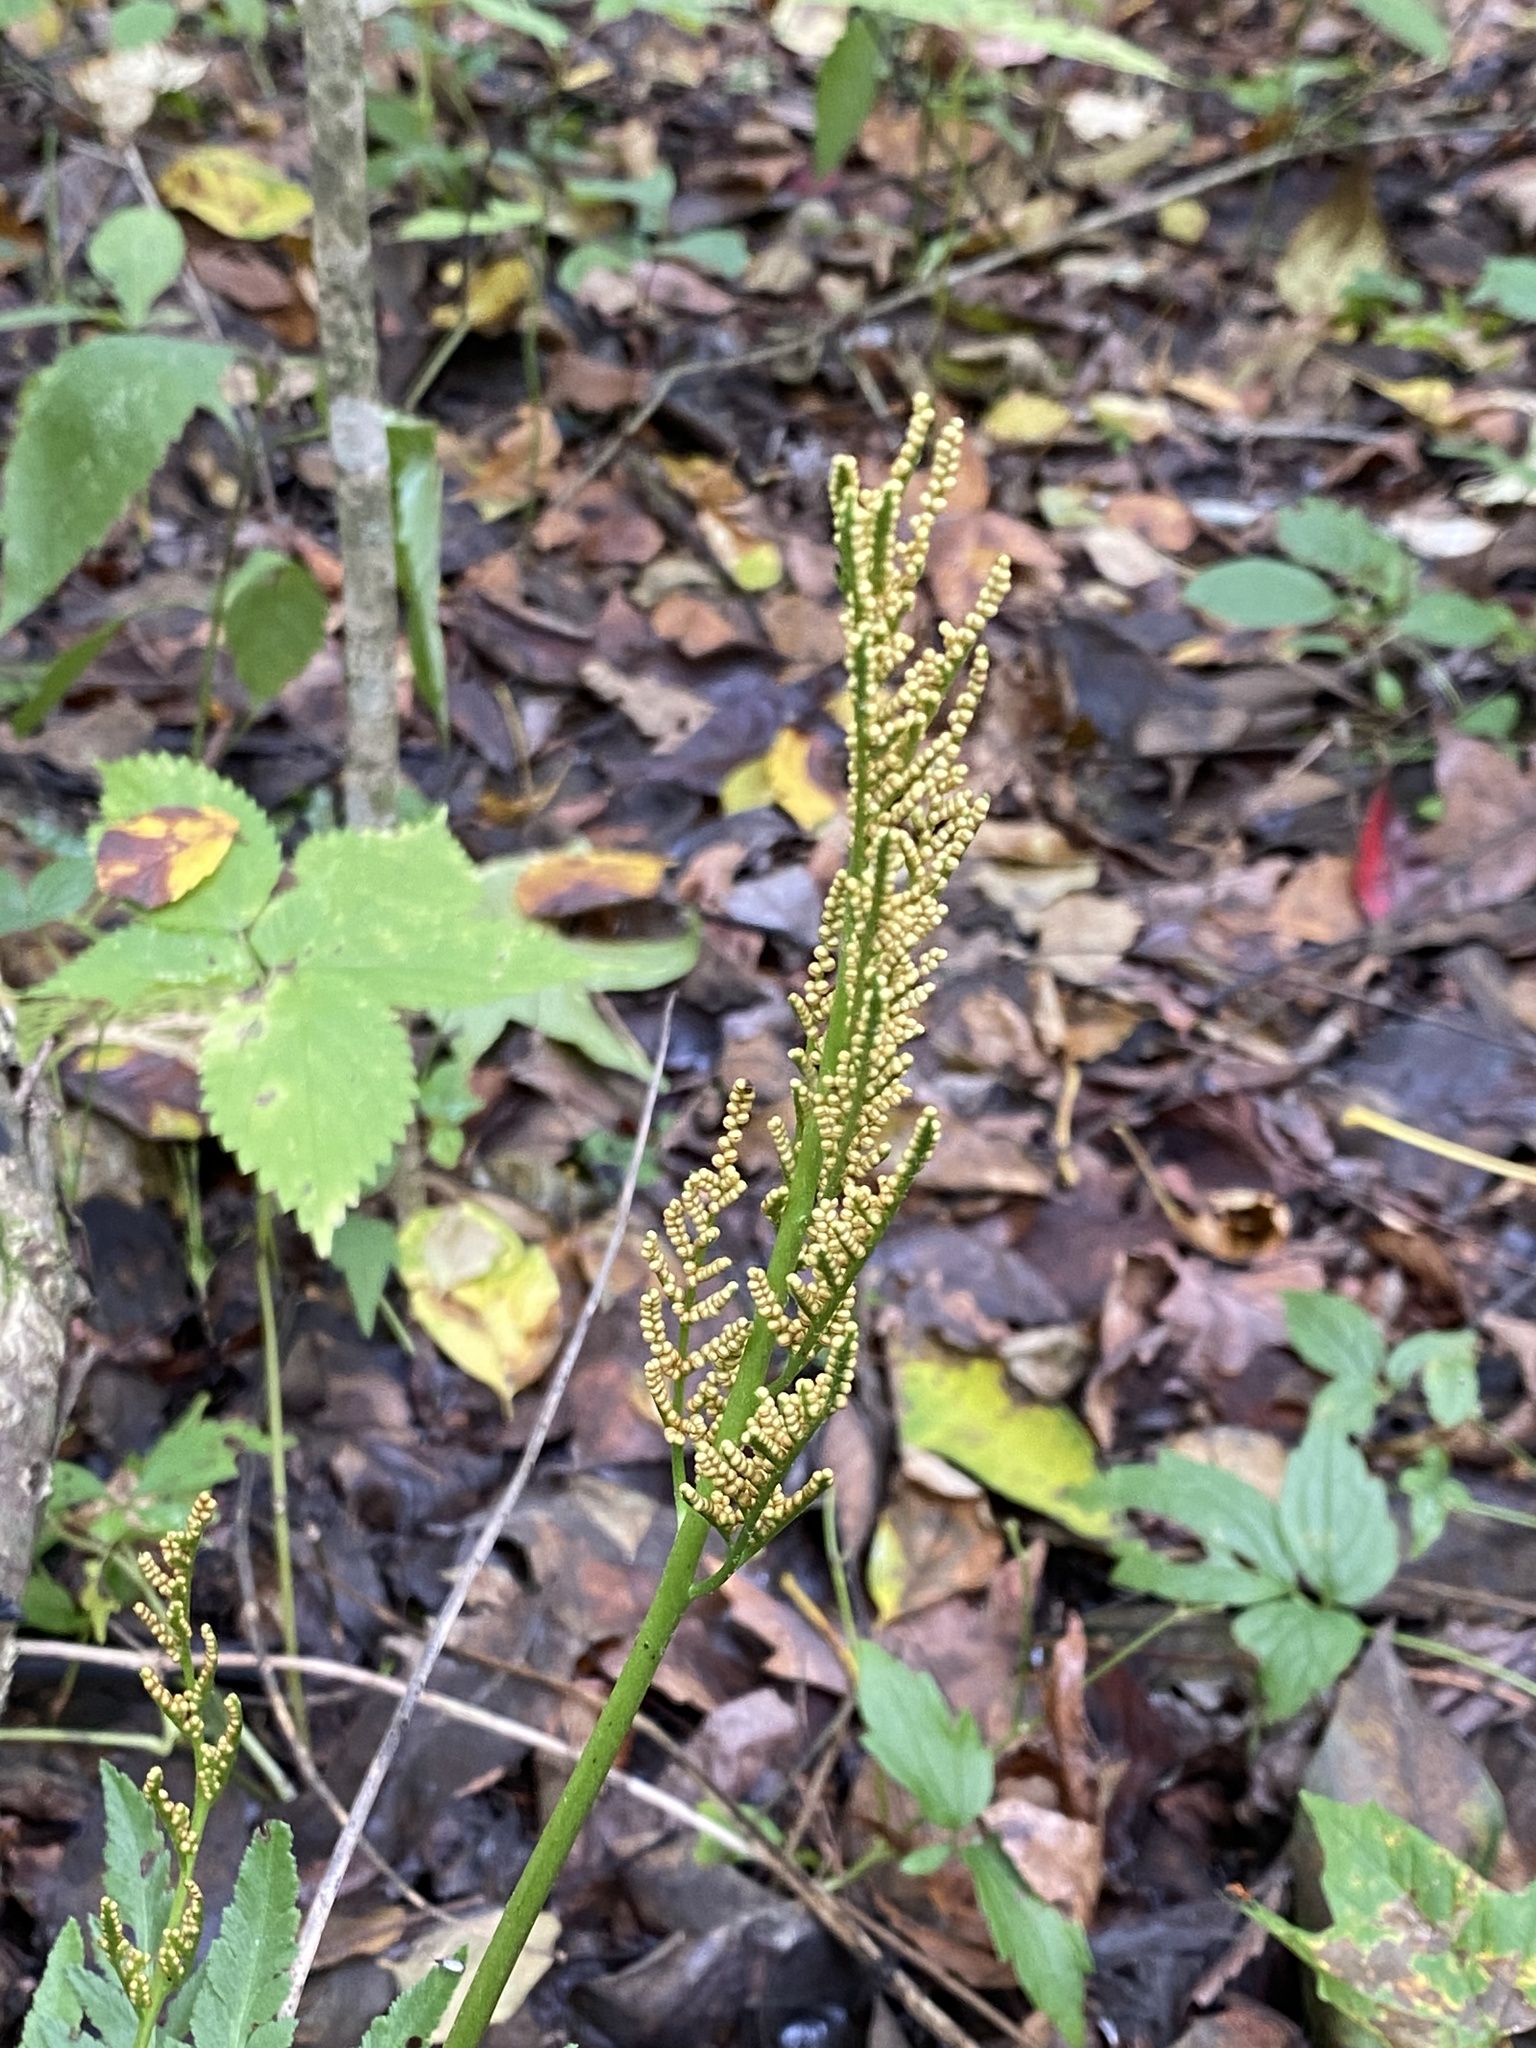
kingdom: Plantae
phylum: Tracheophyta
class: Polypodiopsida
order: Ophioglossales
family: Ophioglossaceae
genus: Sceptridium
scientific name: Sceptridium dissectum
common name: Cut-leaved grapefern
